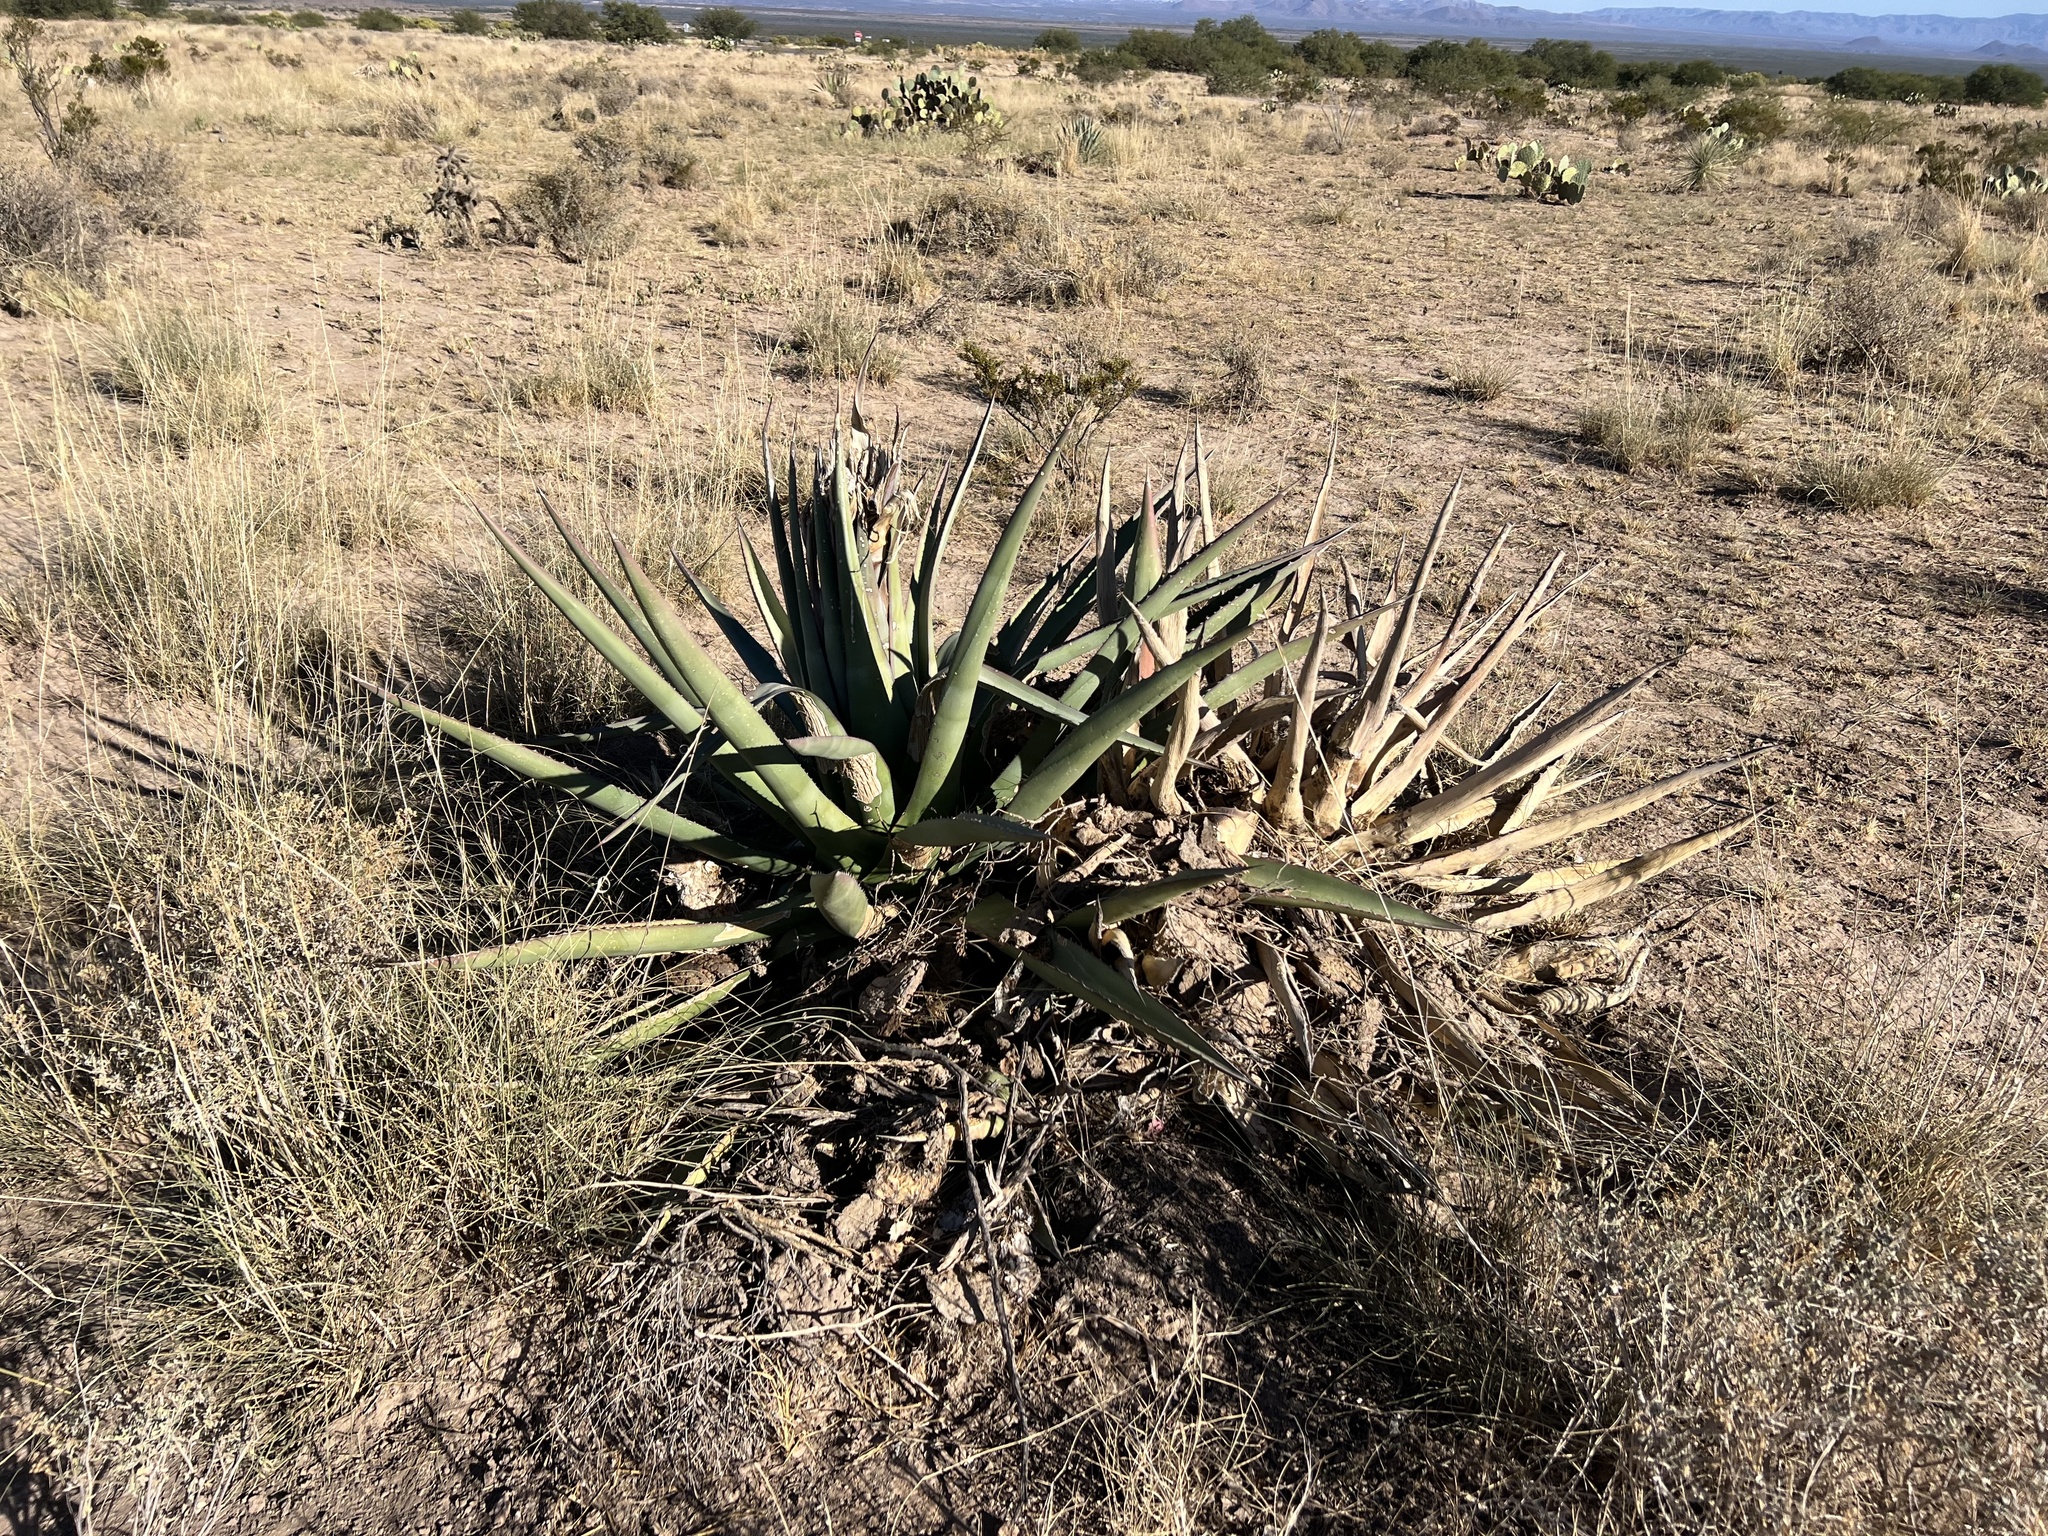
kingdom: Plantae
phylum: Tracheophyta
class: Liliopsida
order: Asparagales
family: Asparagaceae
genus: Agave
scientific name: Agave palmeri
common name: Palmer agave
